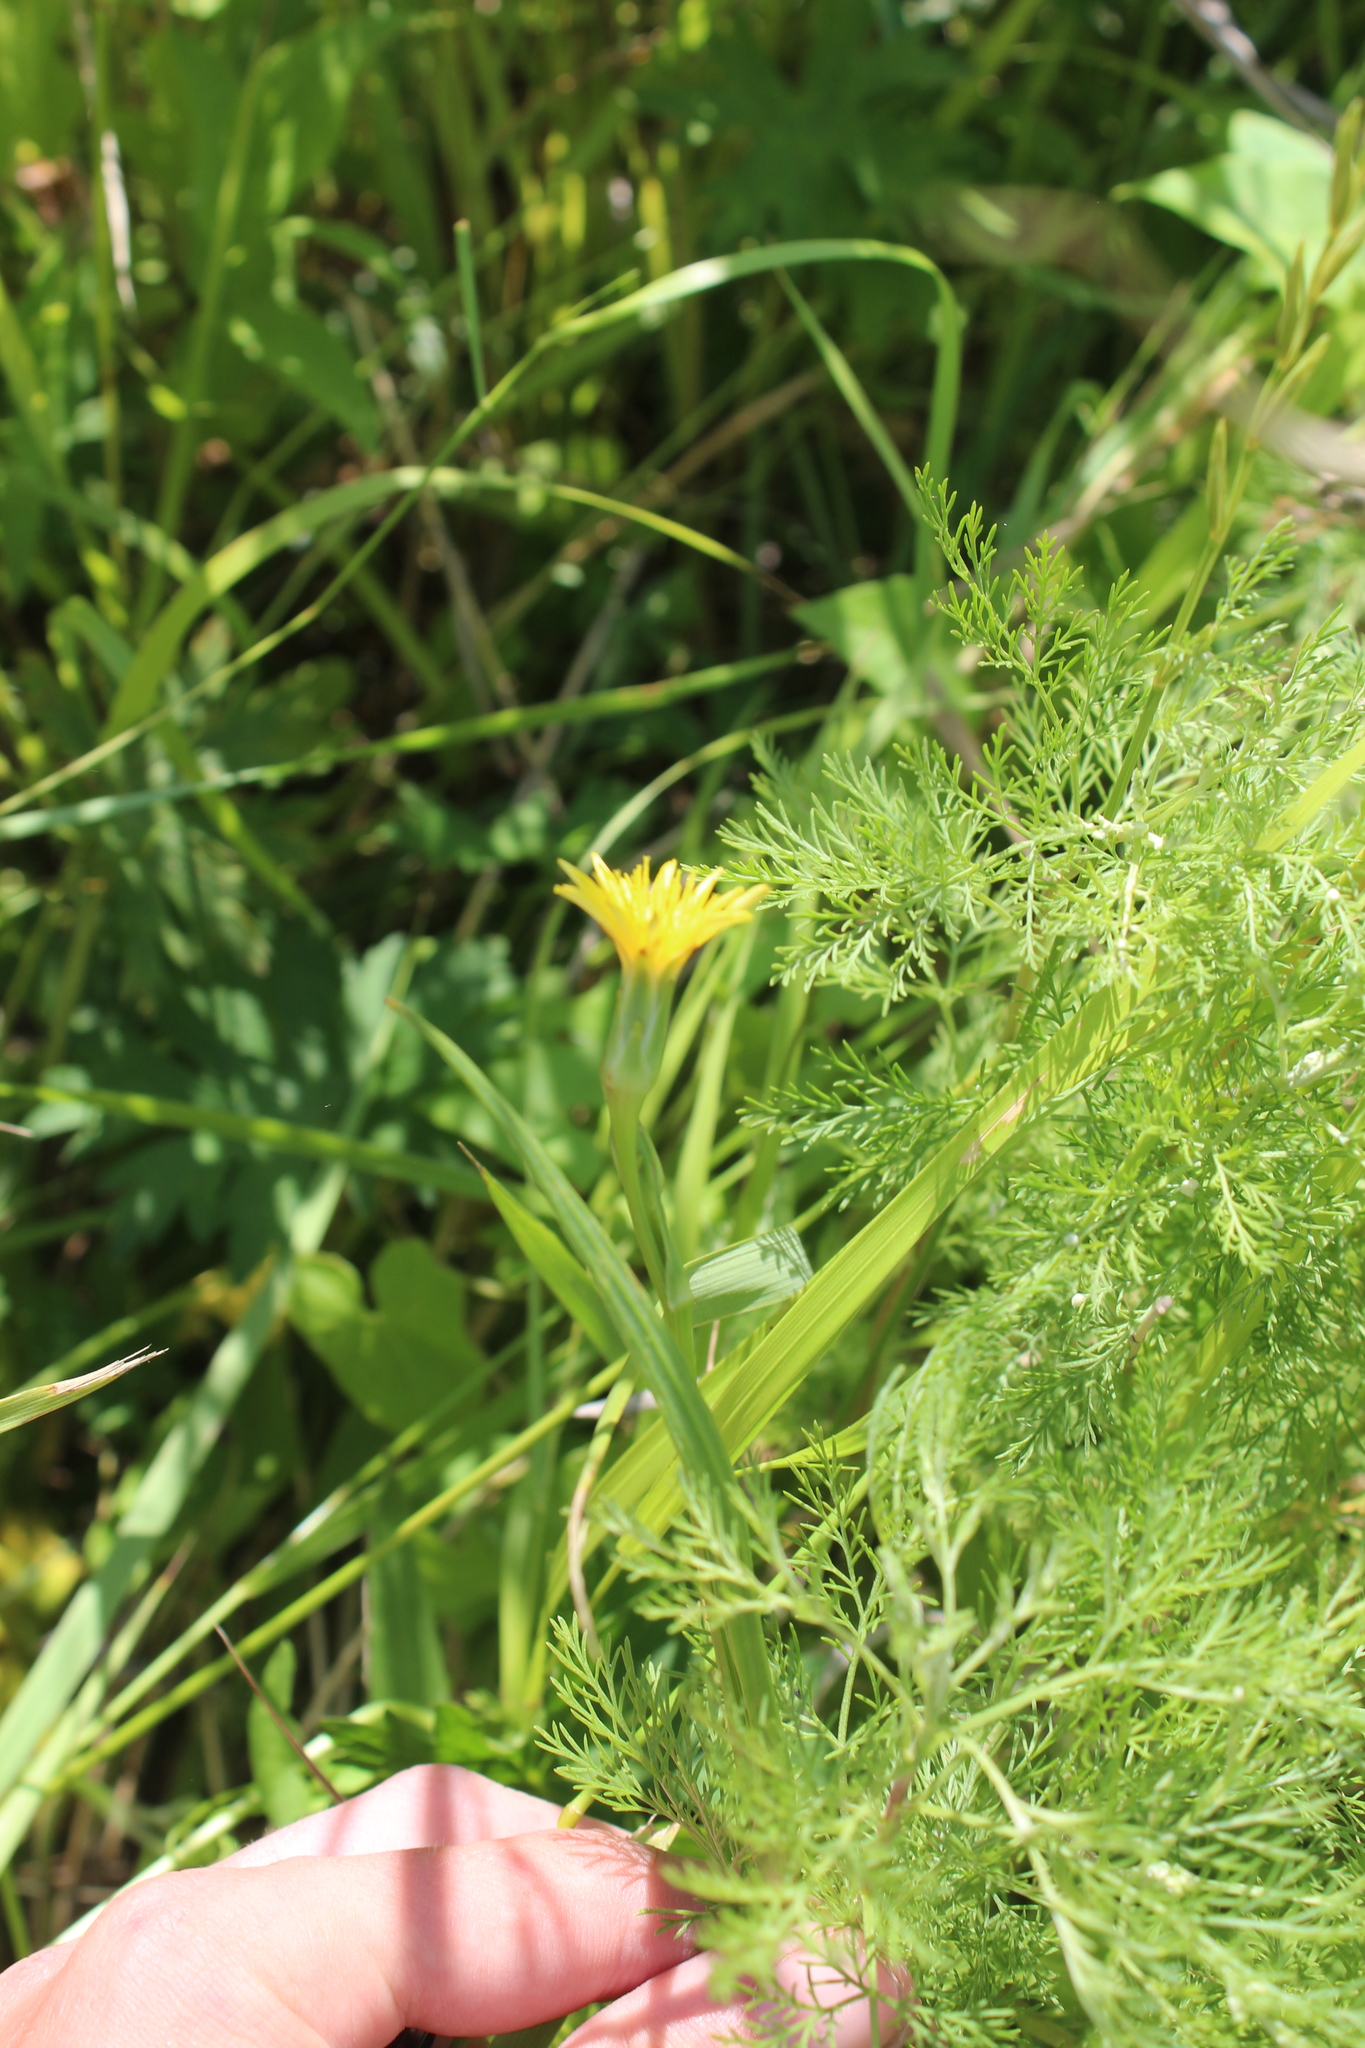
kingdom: Plantae
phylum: Tracheophyta
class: Magnoliopsida
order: Asterales
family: Asteraceae
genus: Scorzonera
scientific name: Scorzonera parviflora
